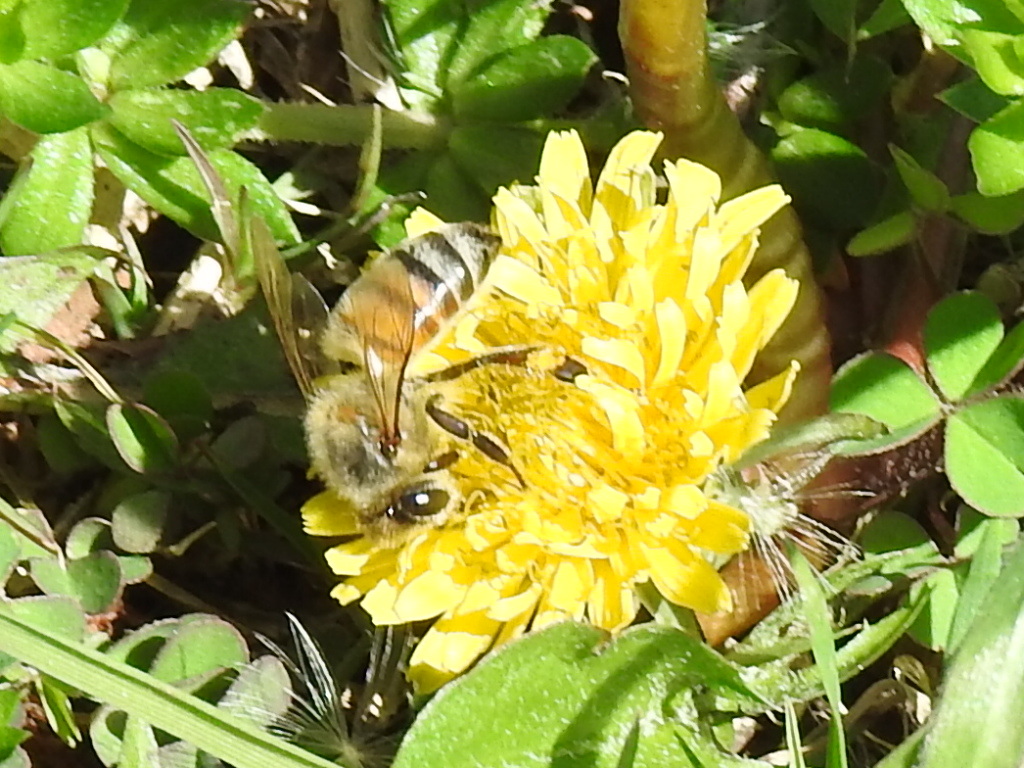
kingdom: Animalia
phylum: Arthropoda
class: Insecta
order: Hymenoptera
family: Apidae
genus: Apis
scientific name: Apis mellifera
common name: Honey bee
